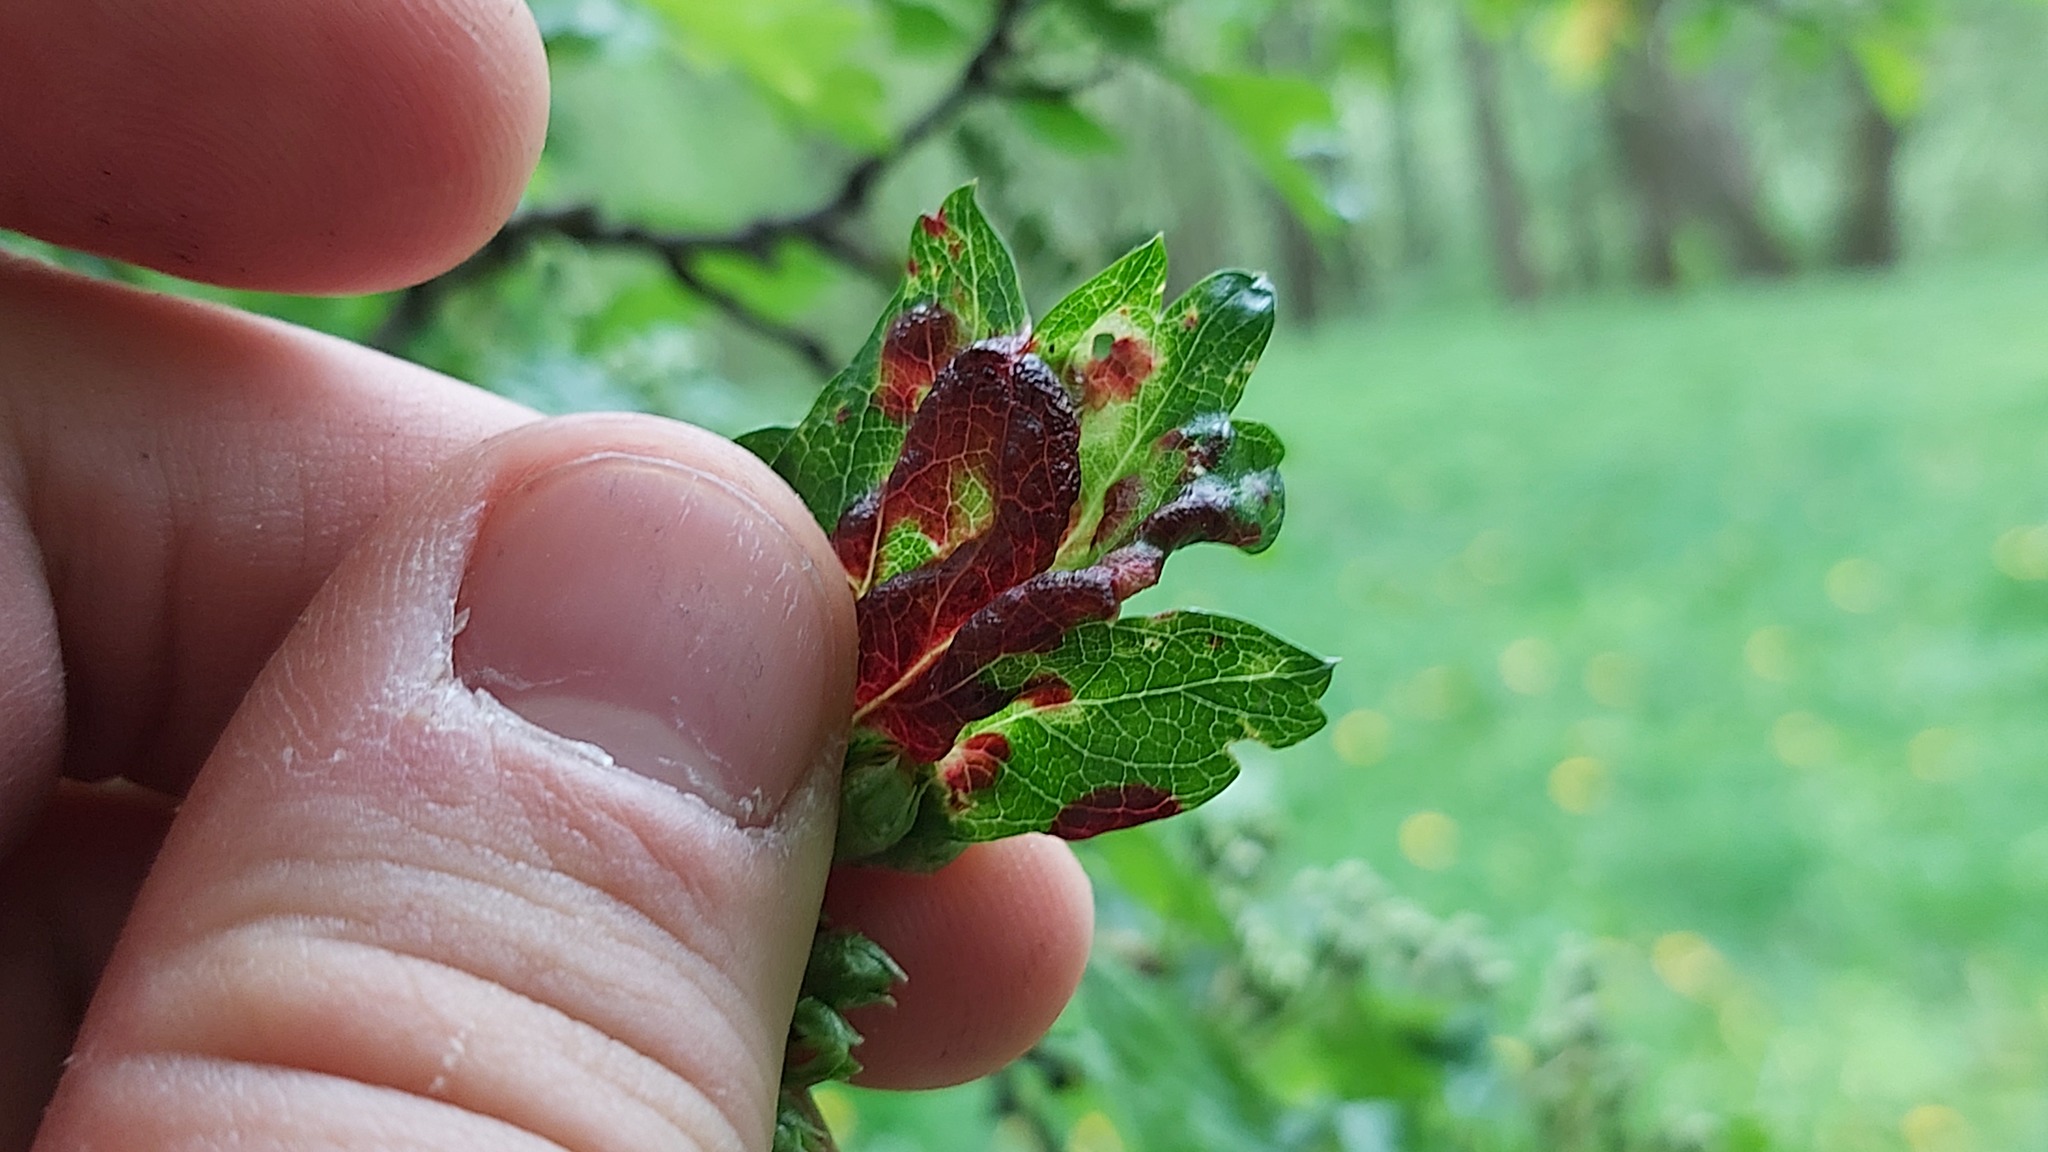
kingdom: Animalia
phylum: Arthropoda
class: Insecta
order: Hemiptera
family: Aphididae
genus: Dysaphis
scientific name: Dysaphis crataegi
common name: Aphid
